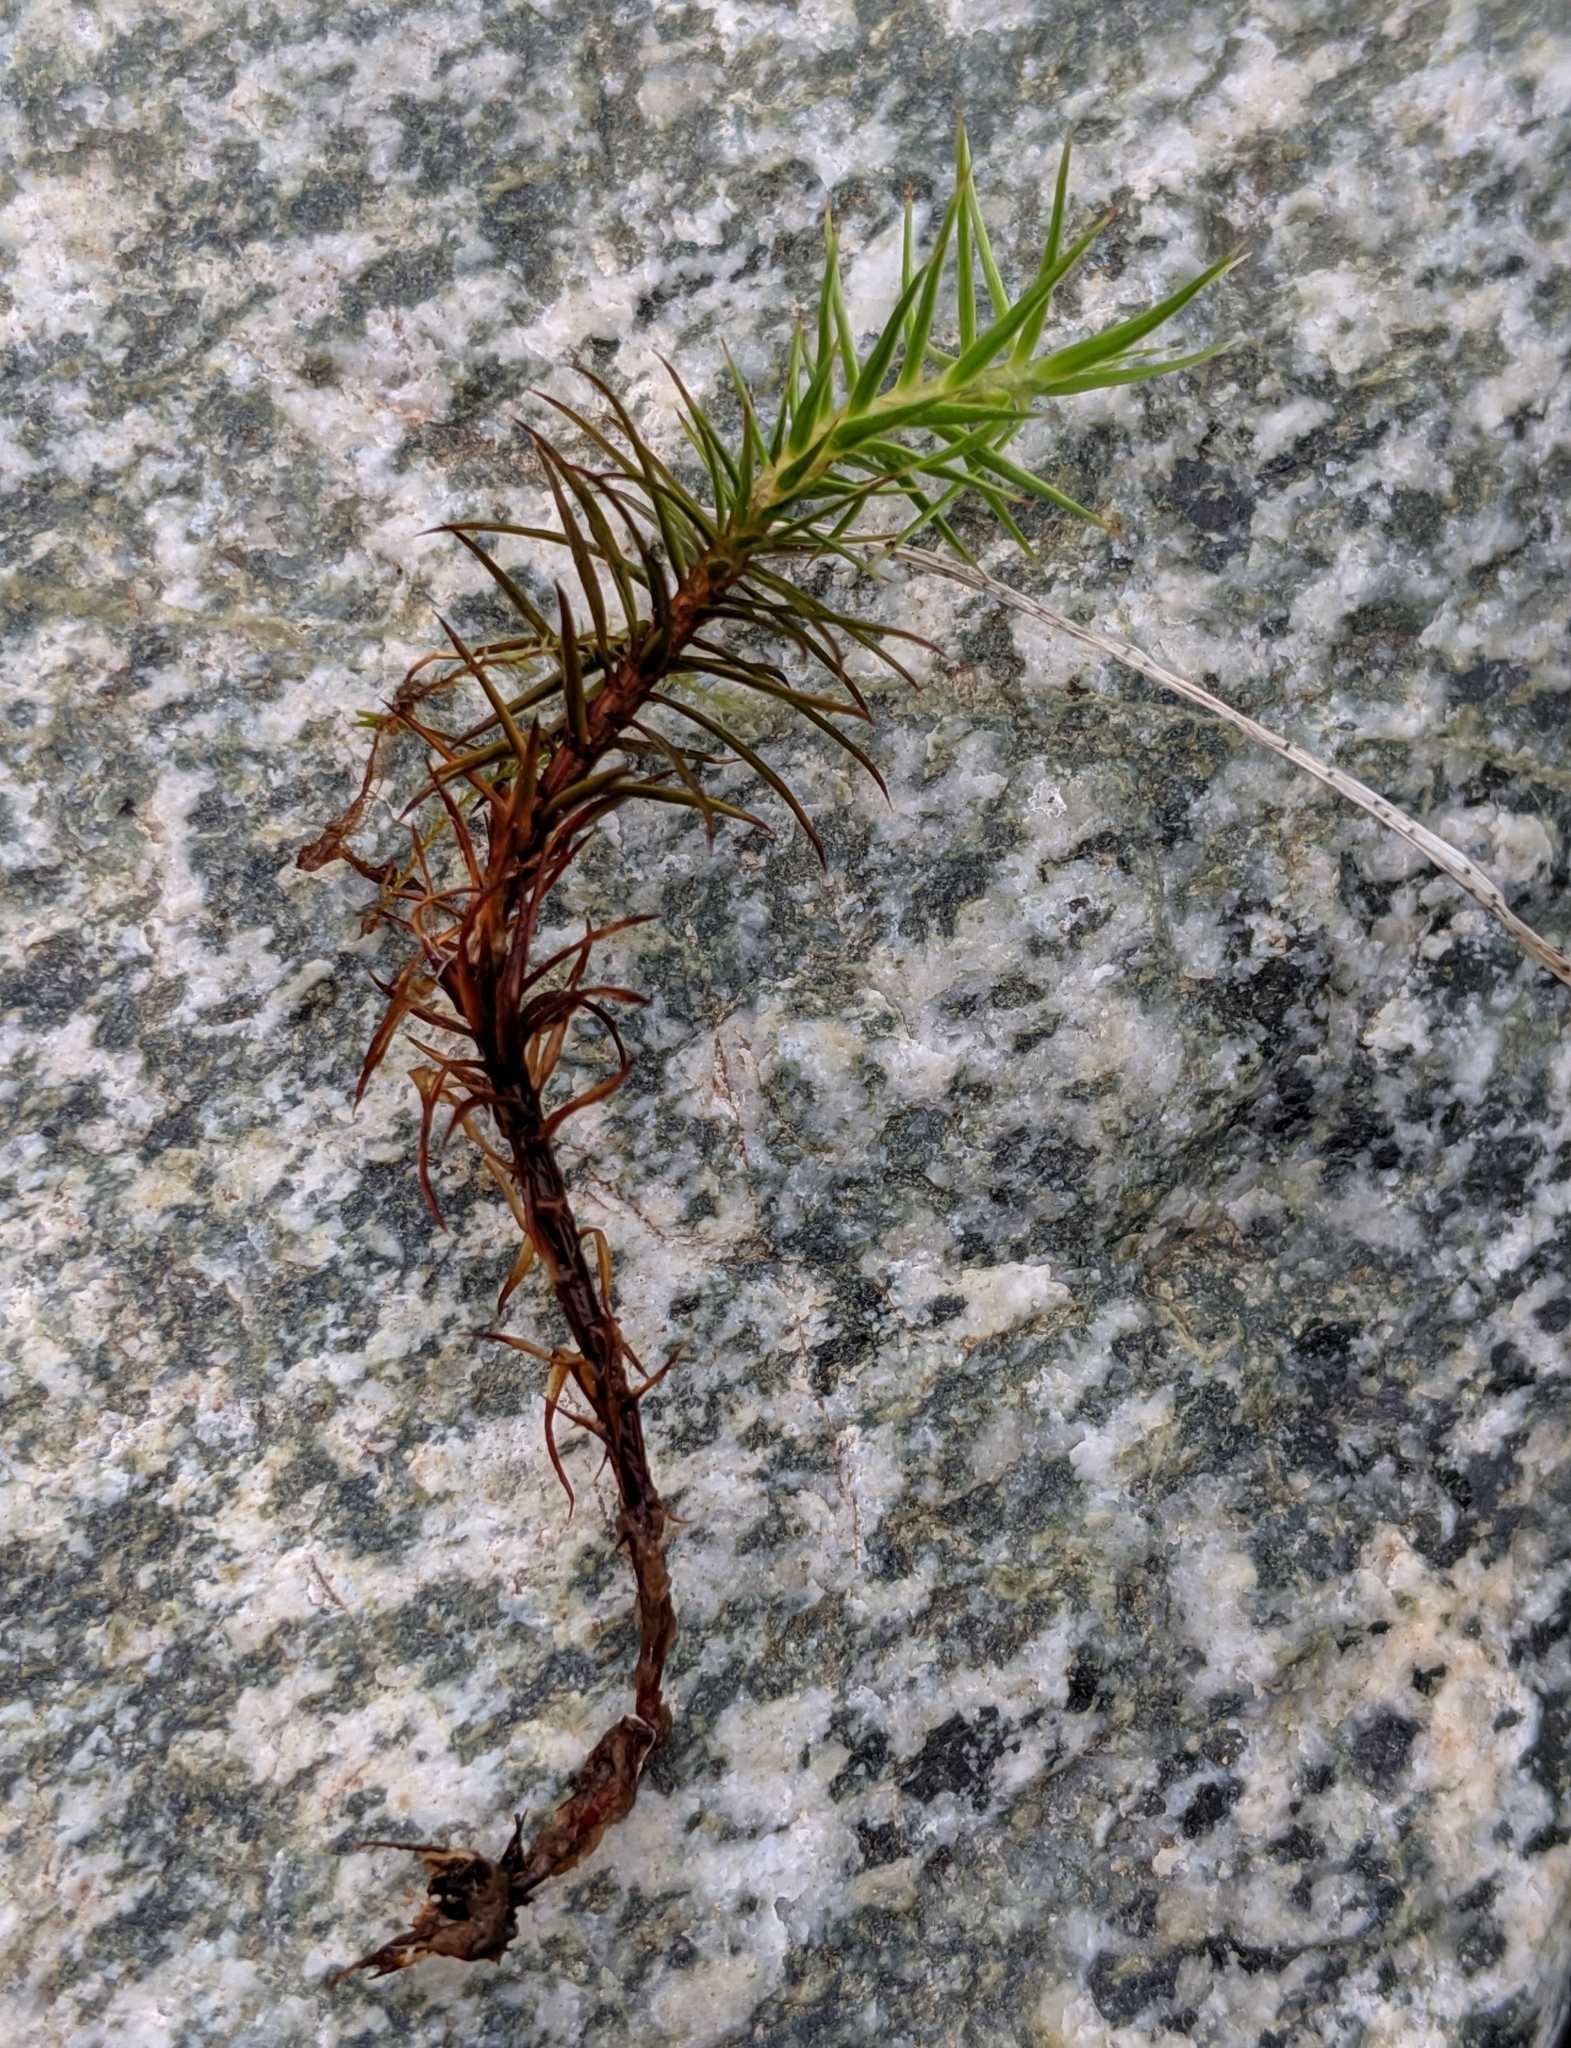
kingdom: Plantae
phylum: Bryophyta
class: Polytrichopsida
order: Polytrichales
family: Polytrichaceae
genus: Polytrichum
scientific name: Polytrichum commune
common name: Common haircap
